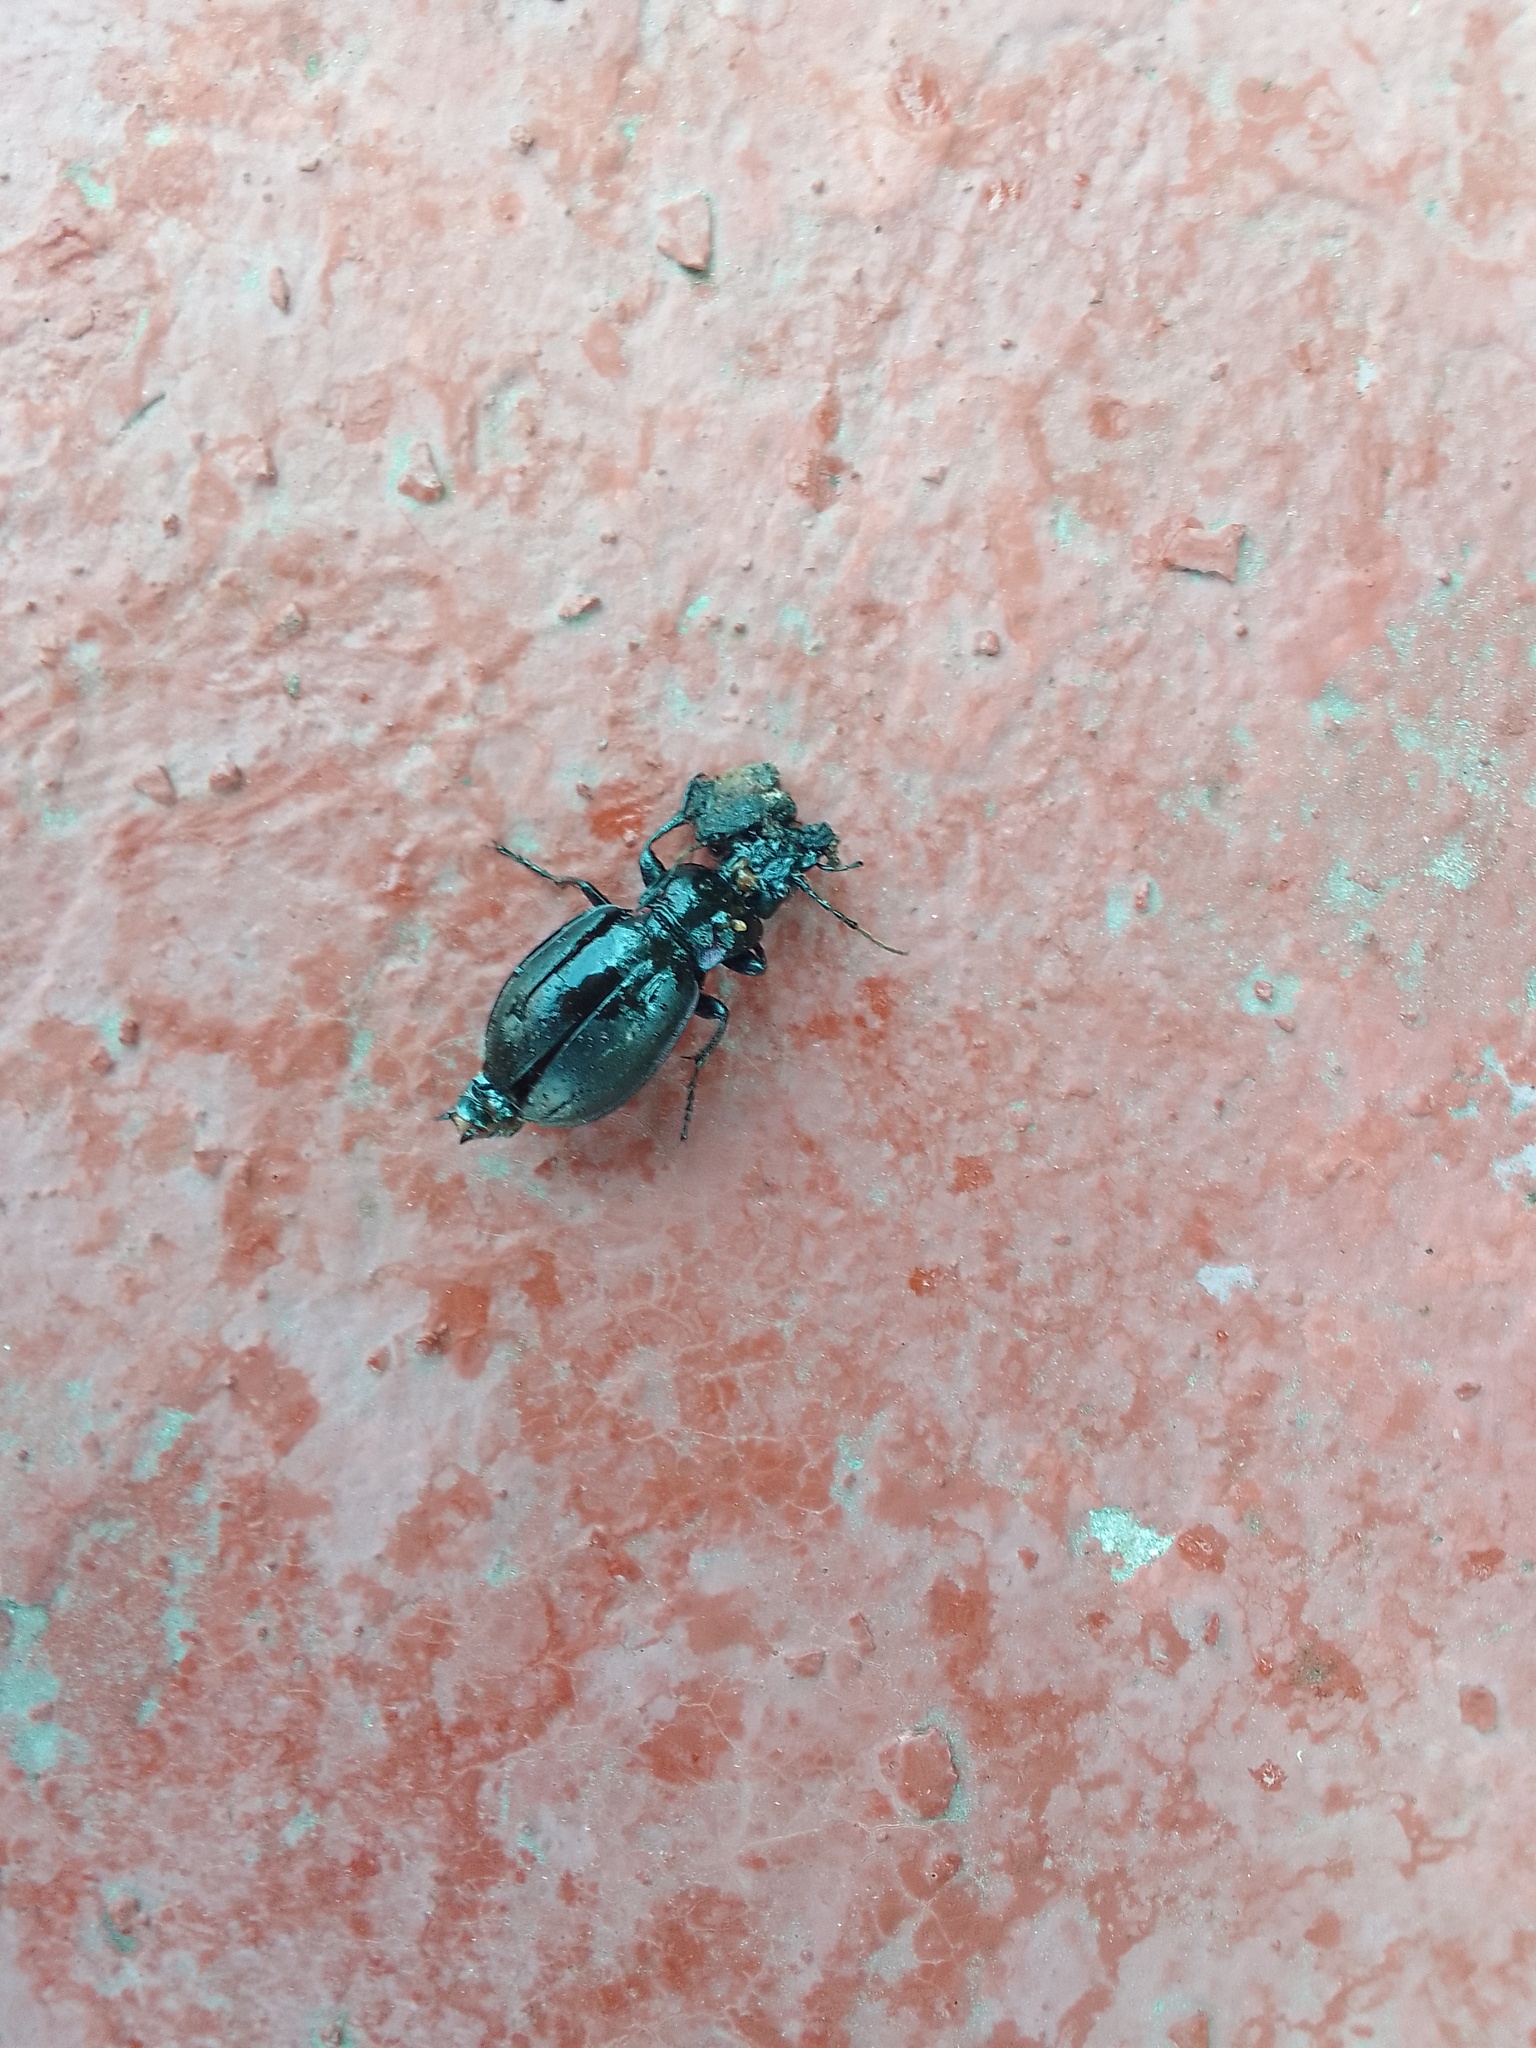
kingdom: Animalia
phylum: Arthropoda
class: Insecta
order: Coleoptera
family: Carabidae
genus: Carabus
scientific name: Carabus nemoralis
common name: European ground beetle
